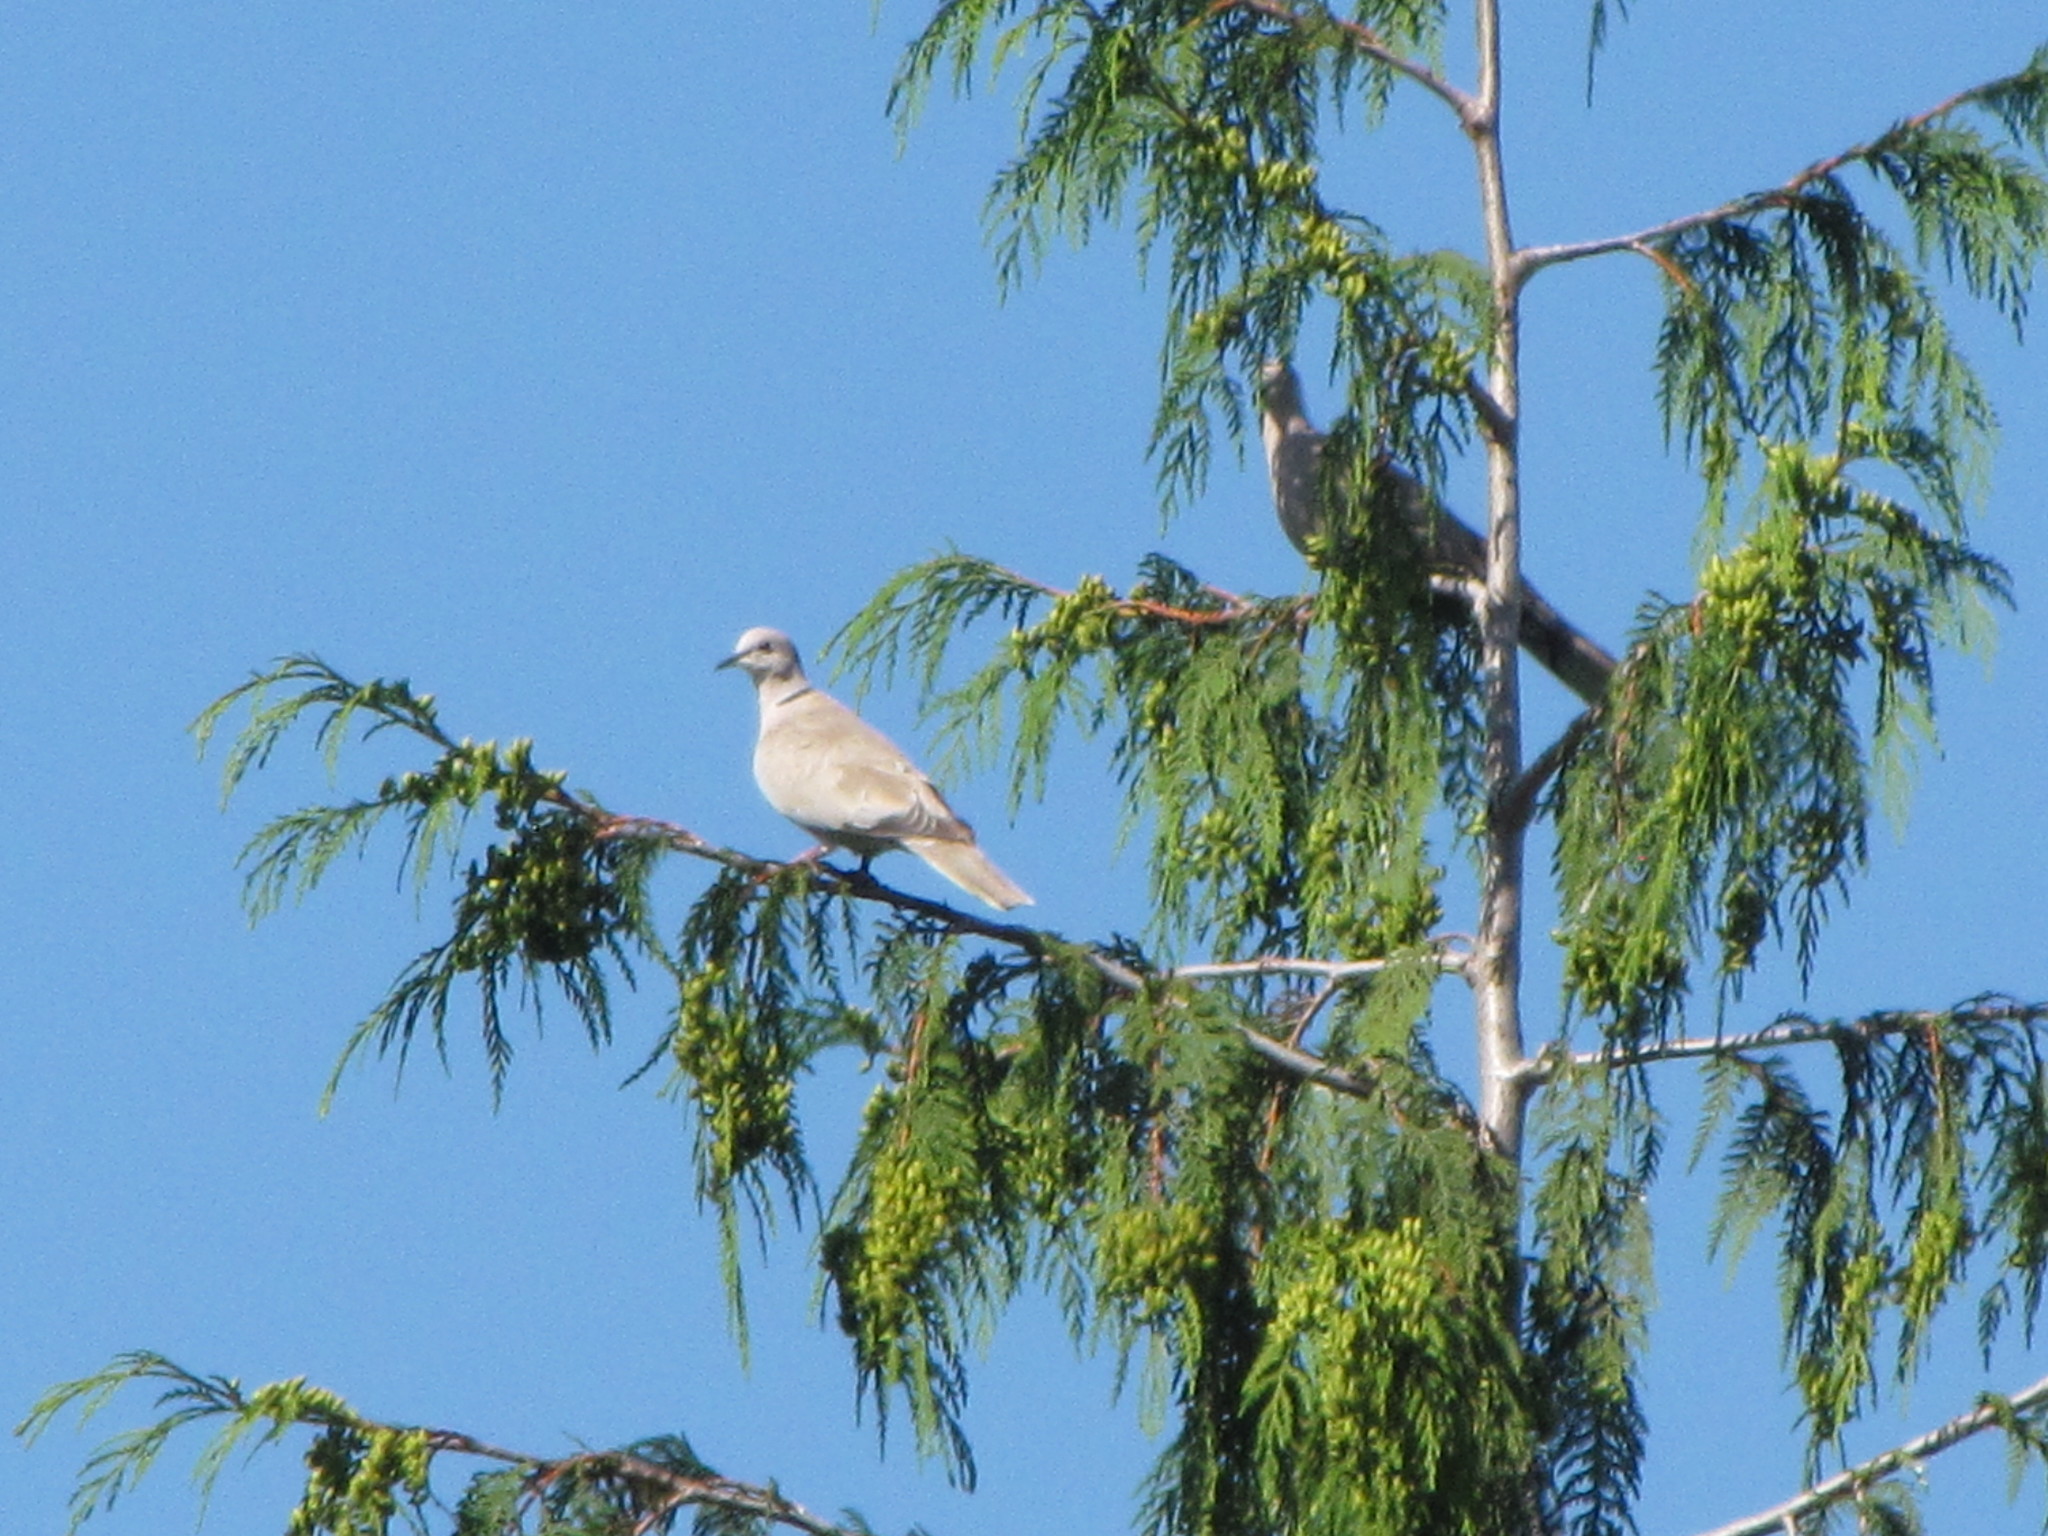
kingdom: Animalia
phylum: Chordata
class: Aves
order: Columbiformes
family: Columbidae
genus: Streptopelia
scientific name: Streptopelia decaocto
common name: Eurasian collared dove
